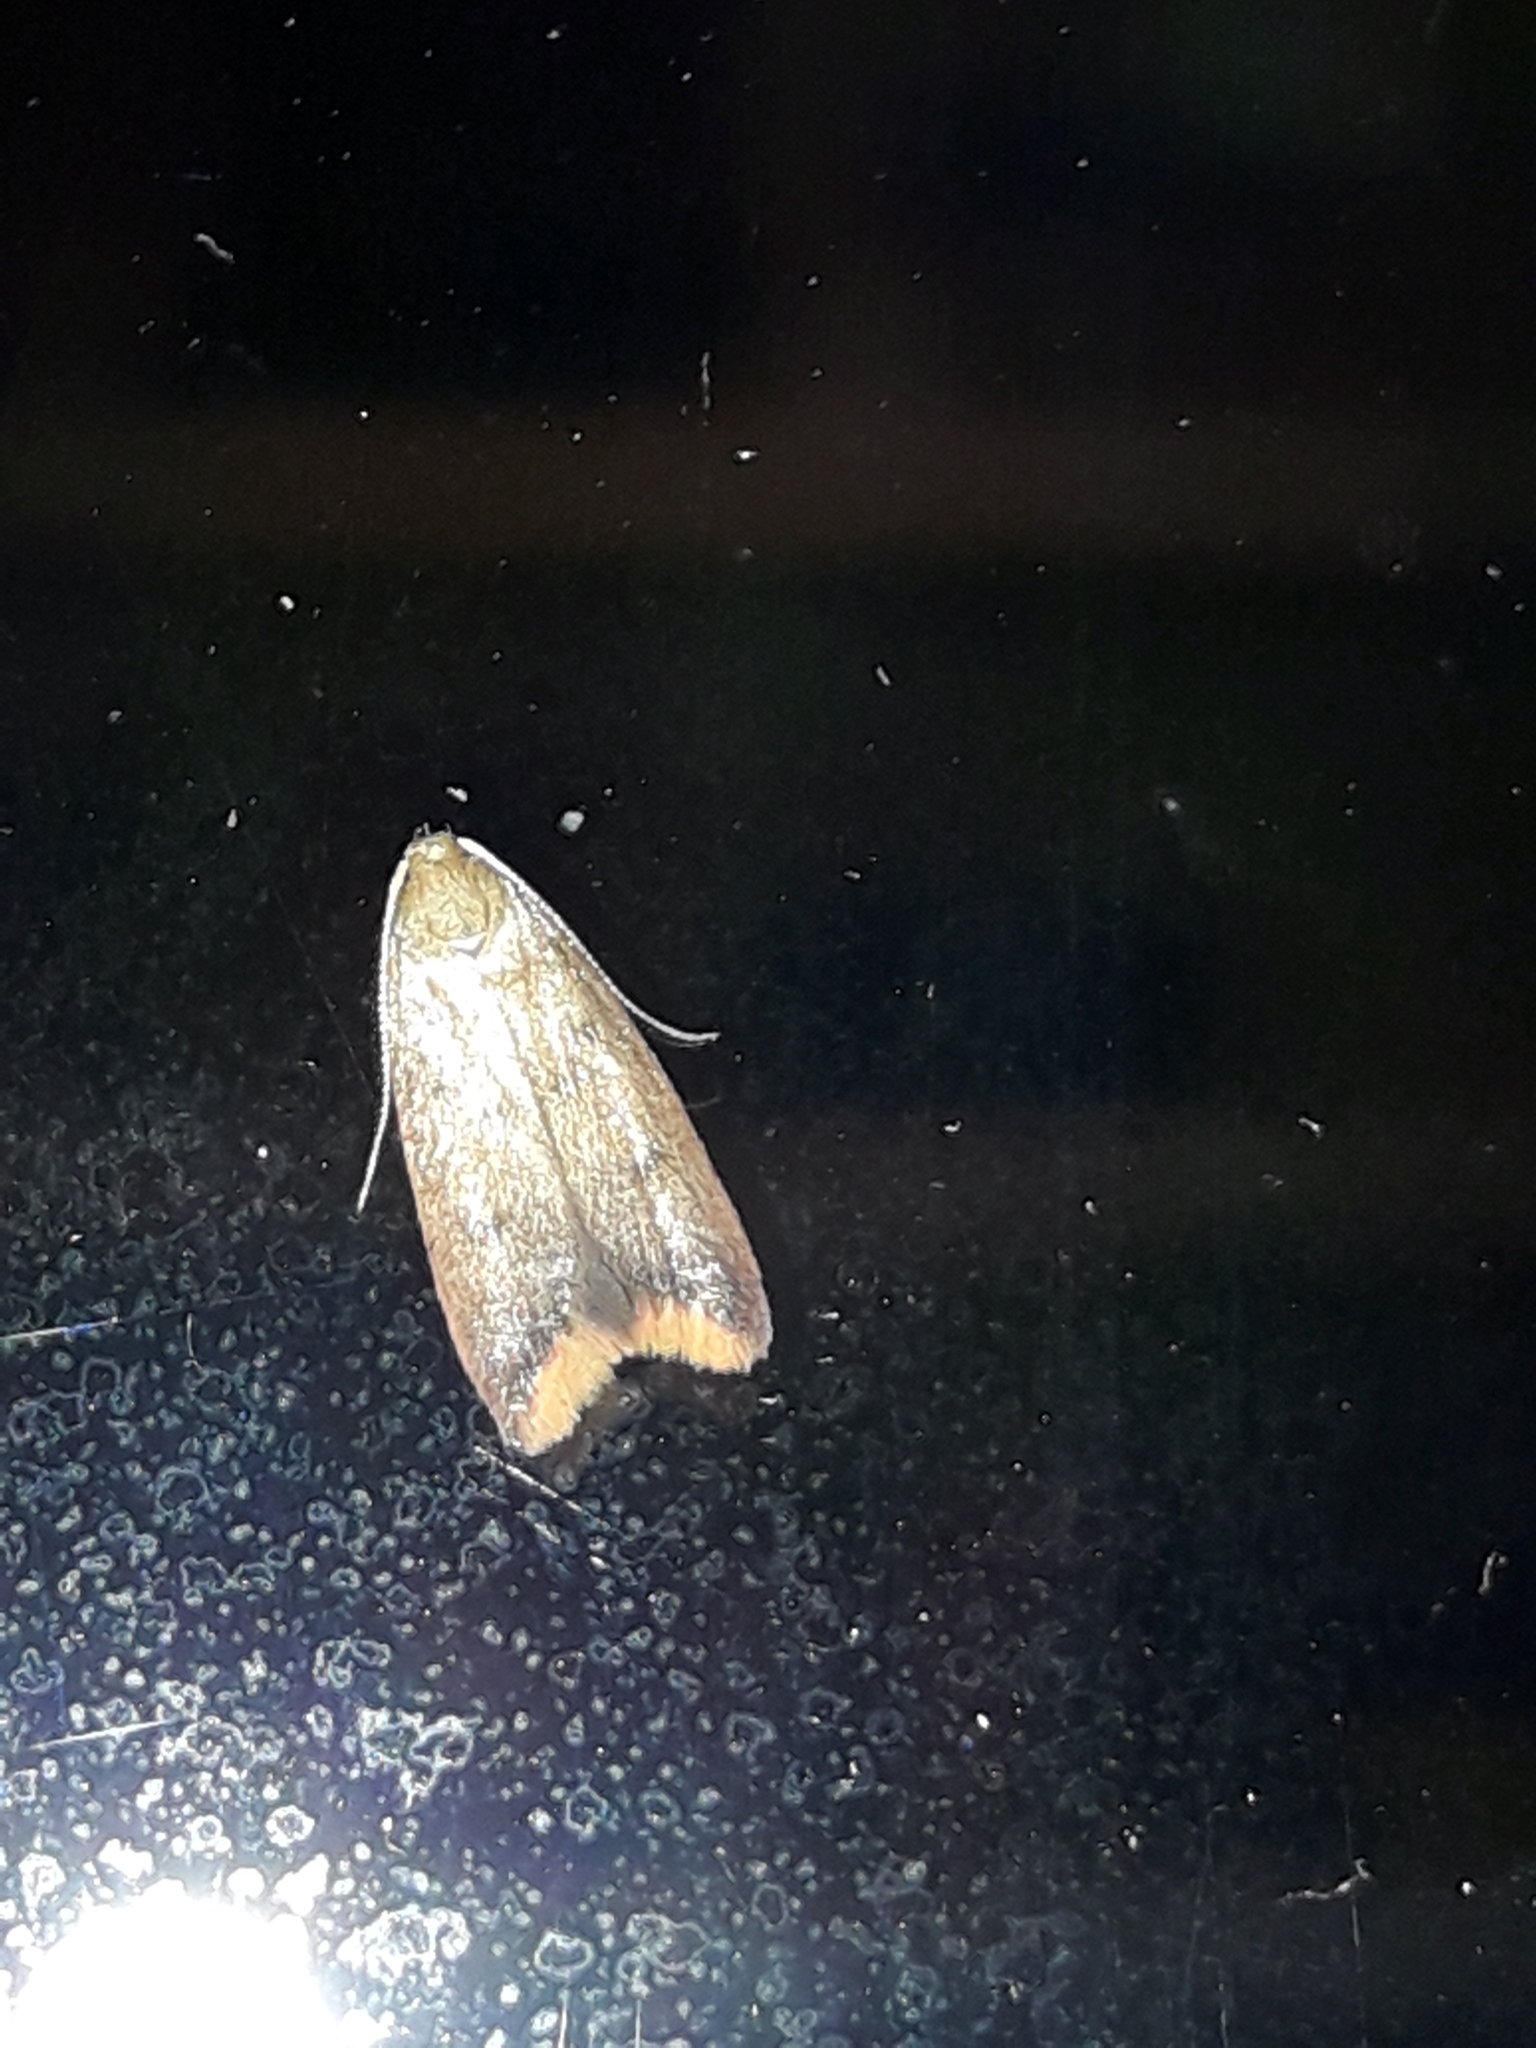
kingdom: Animalia
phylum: Arthropoda
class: Insecta
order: Lepidoptera
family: Oecophoridae
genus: Tachystola
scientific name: Tachystola acroxantha
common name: Ruddy streak
